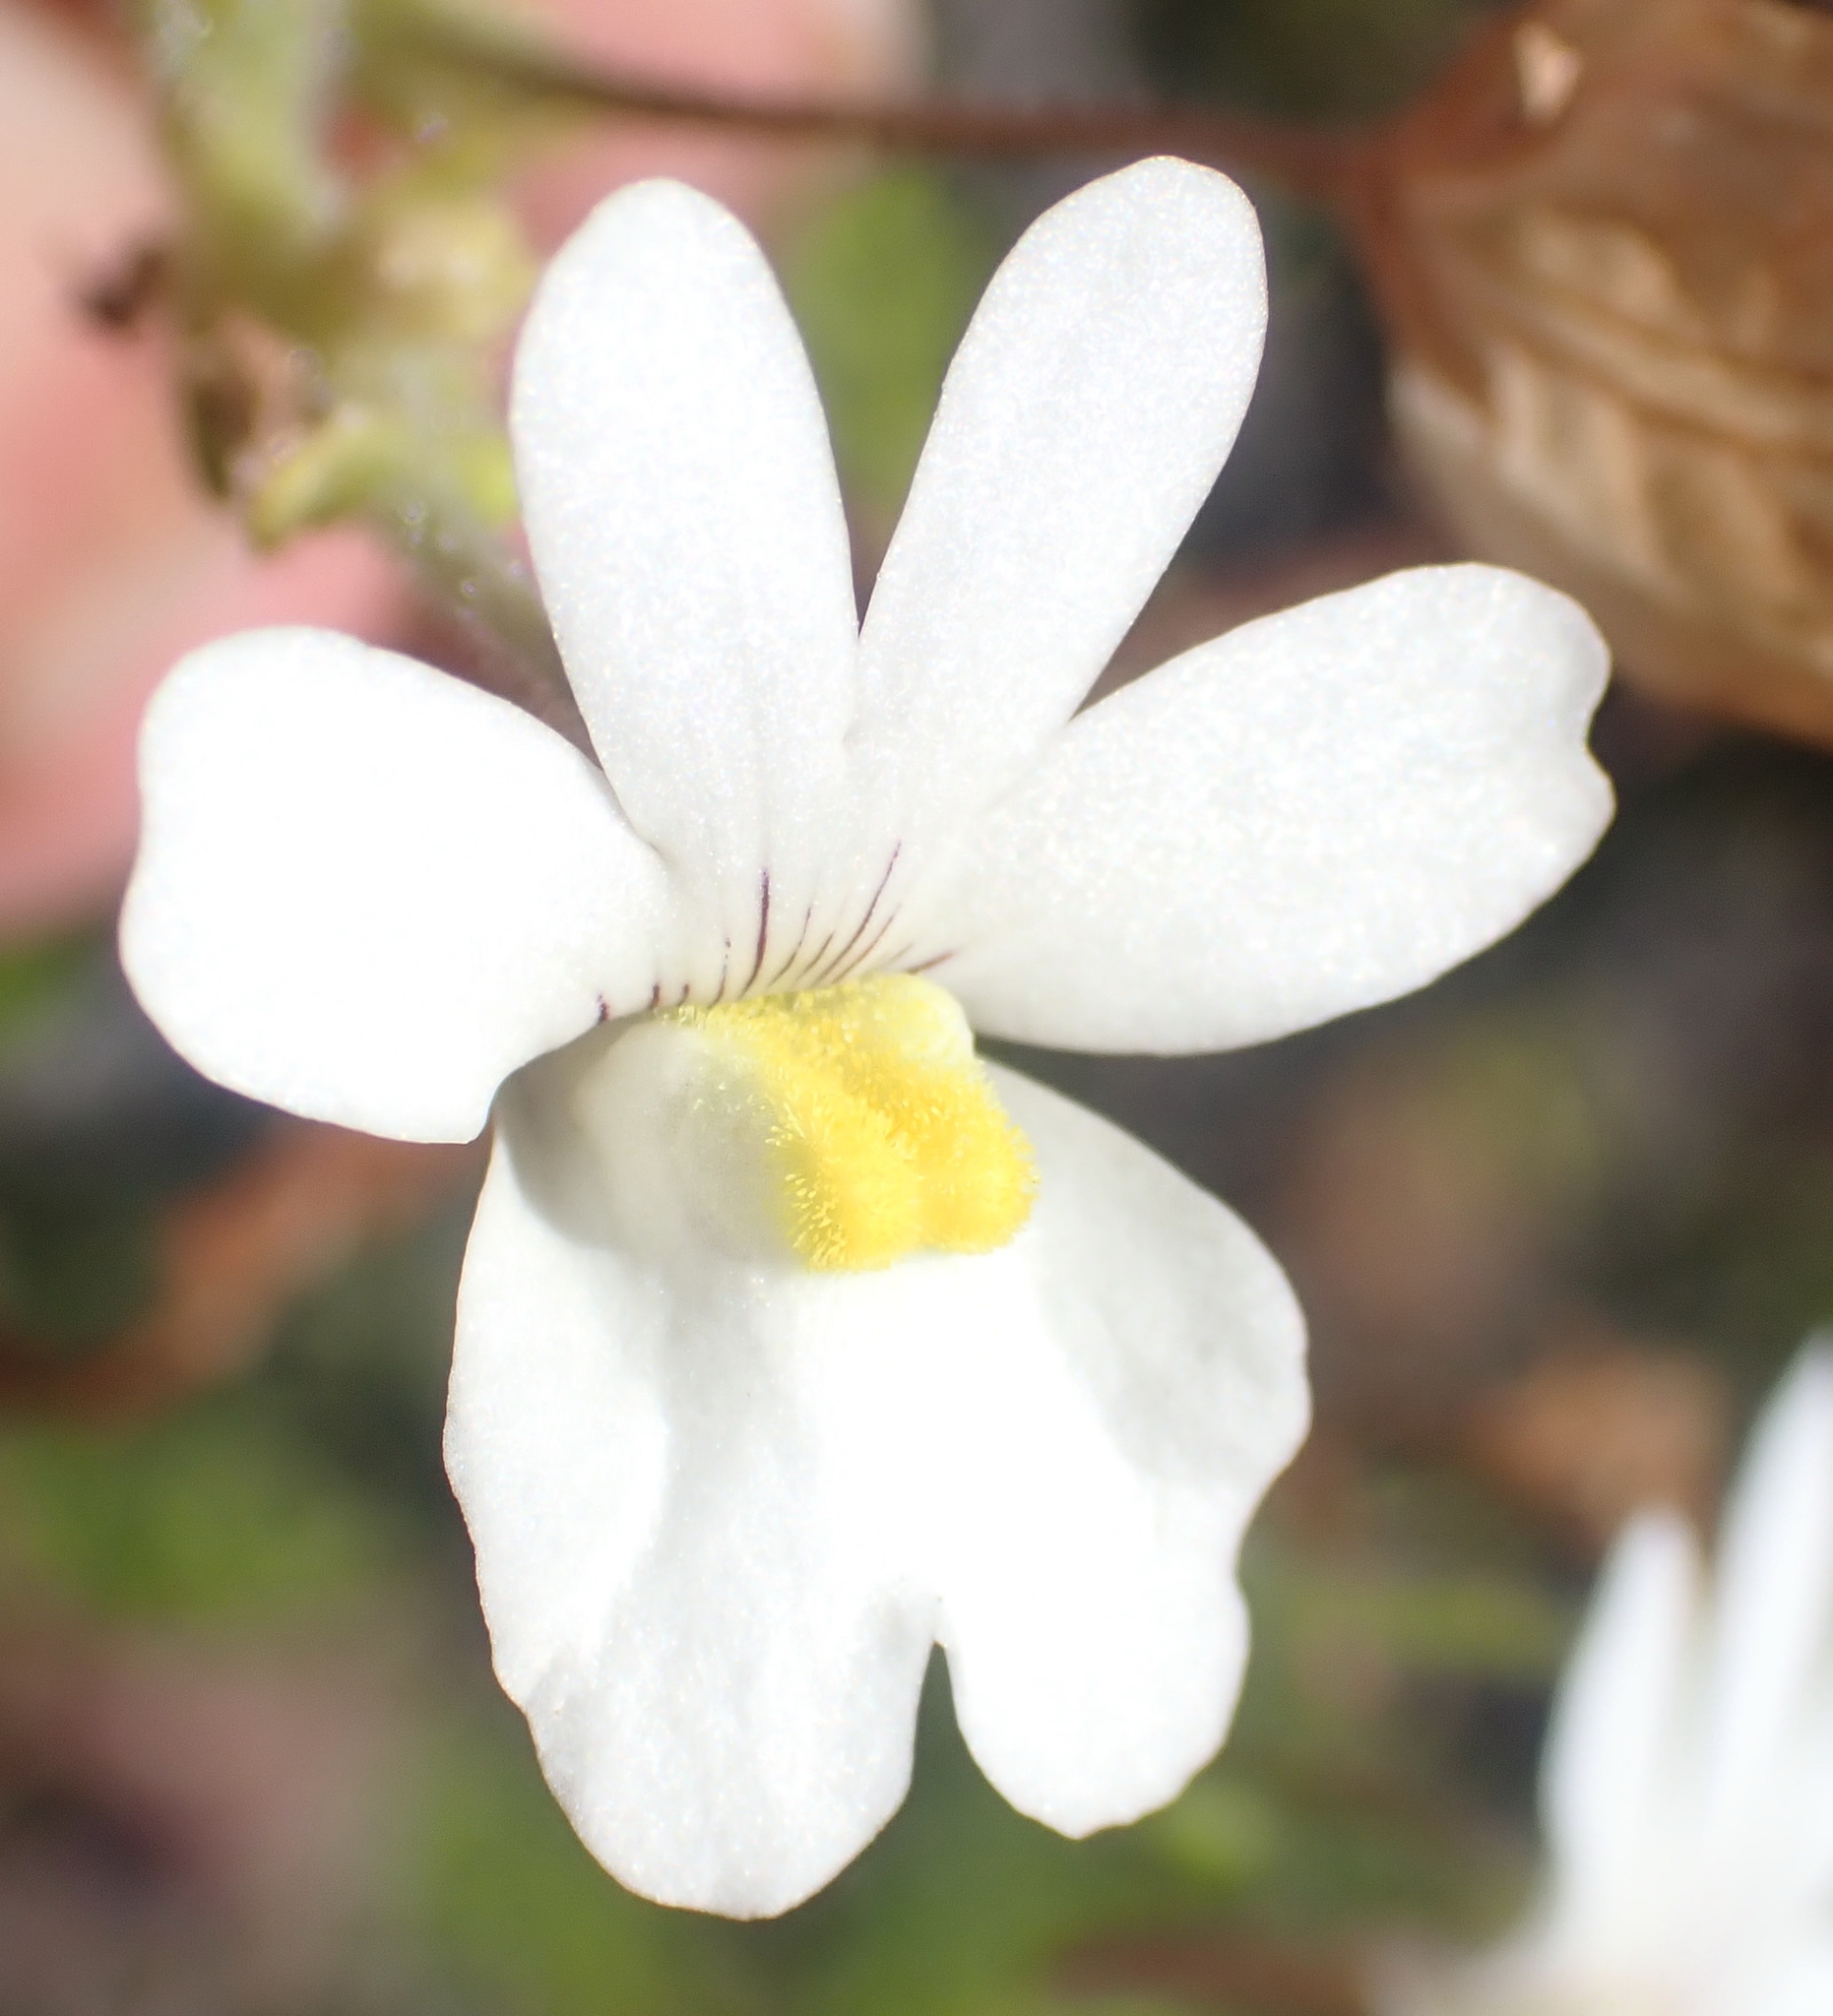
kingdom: Plantae
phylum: Tracheophyta
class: Magnoliopsida
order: Lamiales
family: Scrophulariaceae
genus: Nemesia
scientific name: Nemesia versicolor
